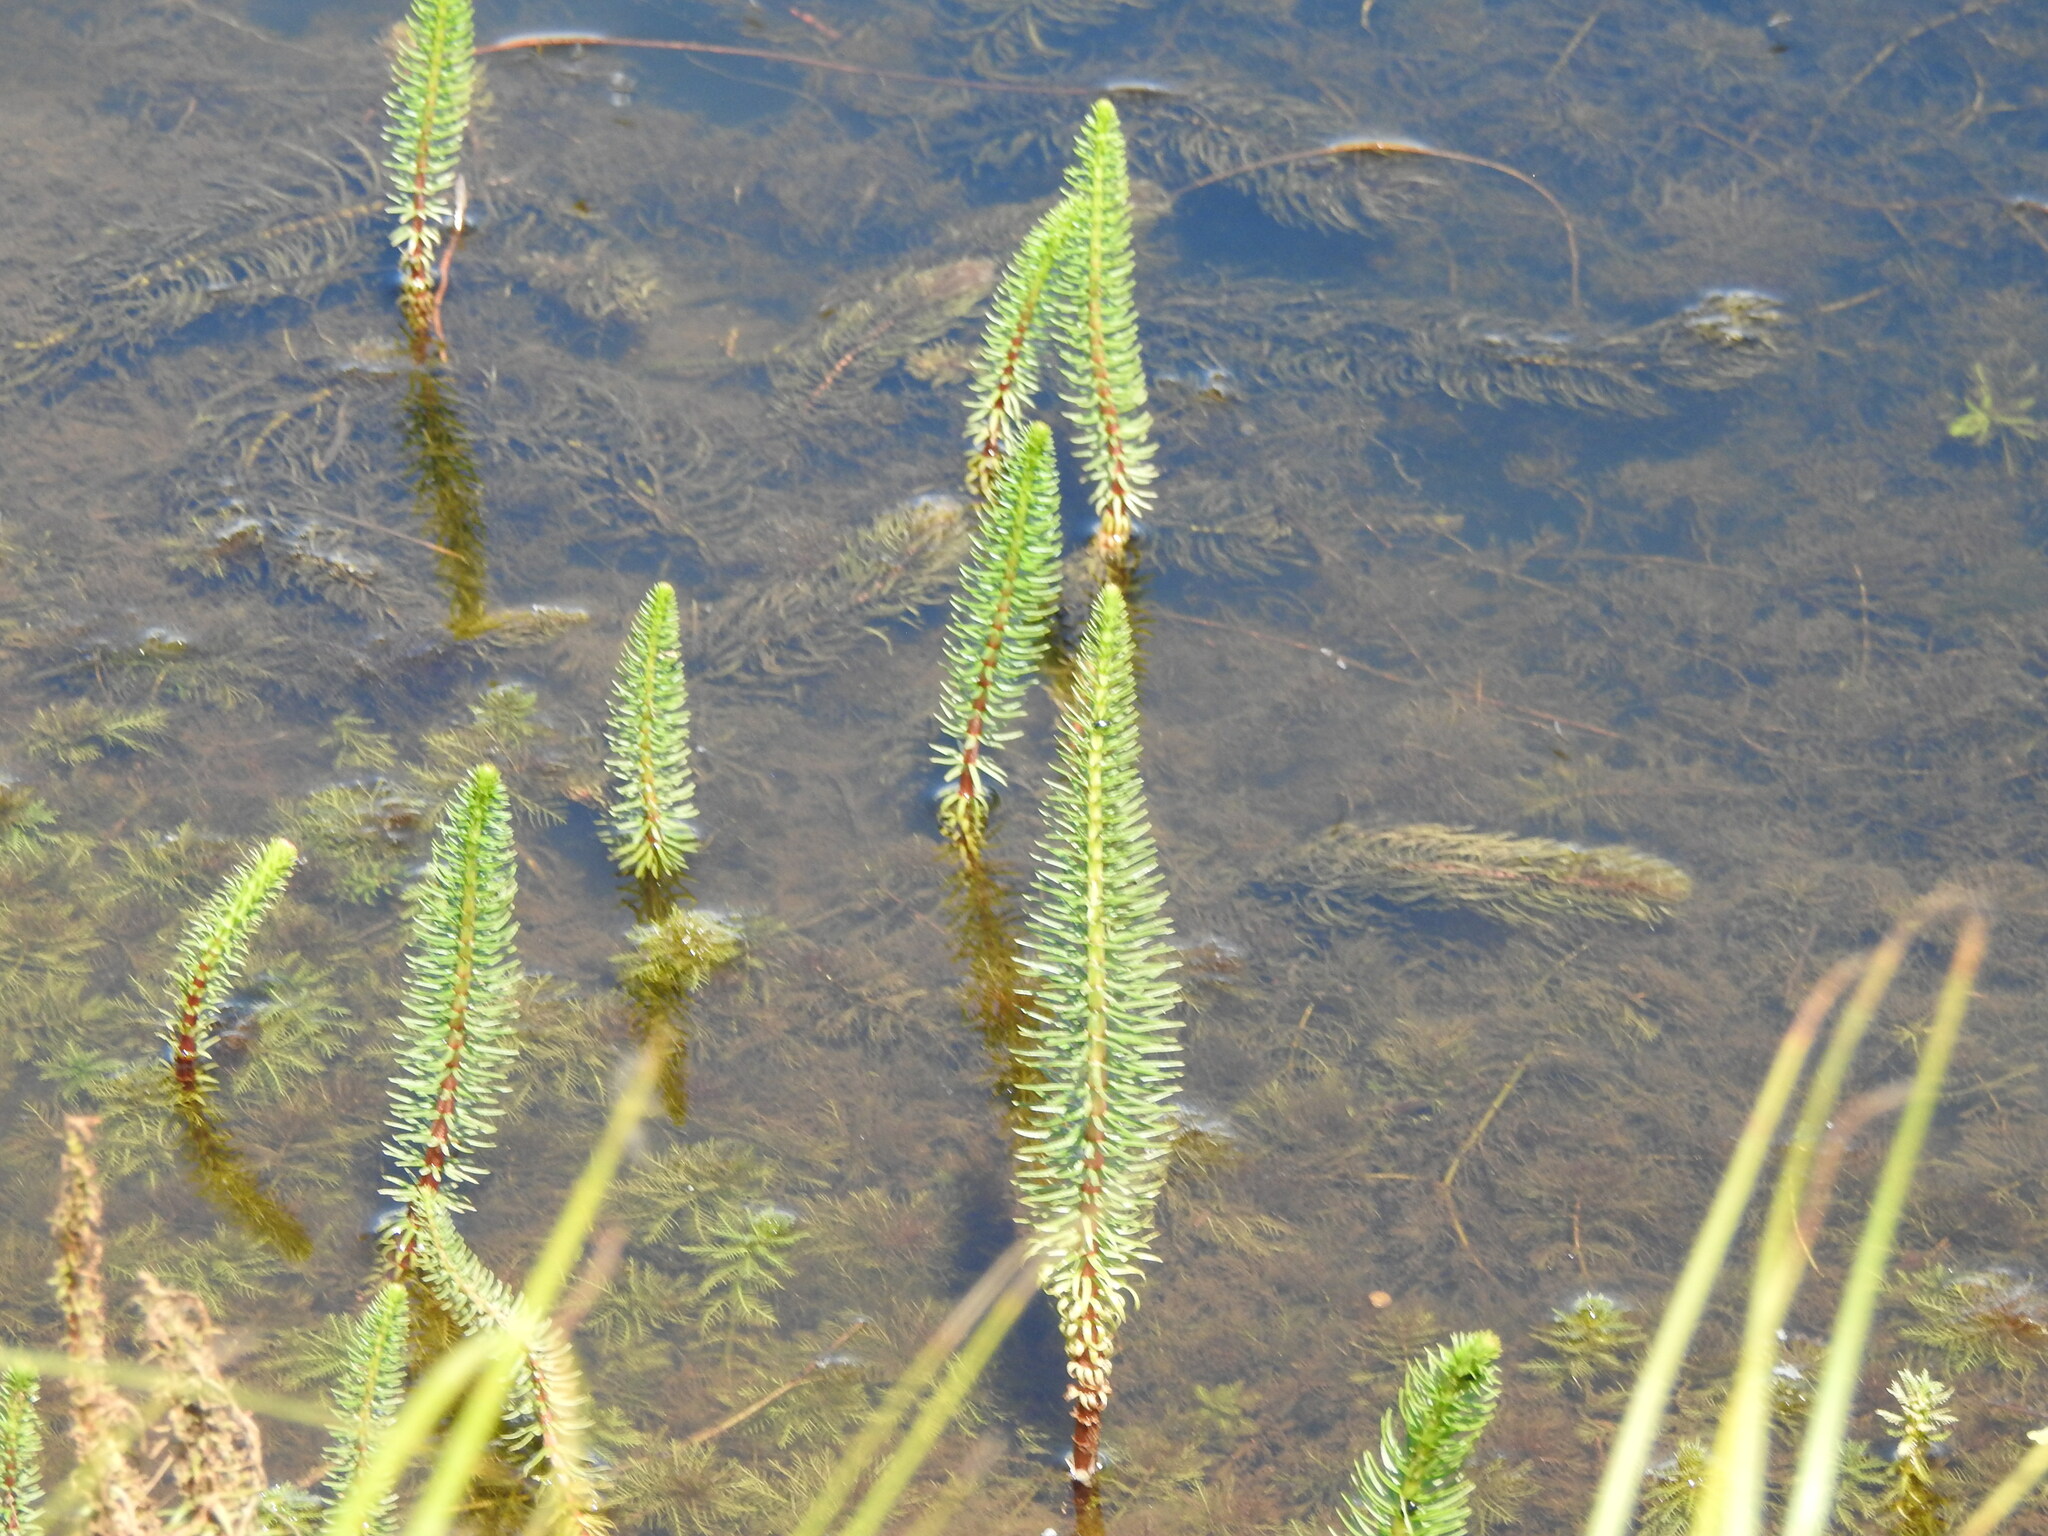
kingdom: Plantae
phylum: Tracheophyta
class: Magnoliopsida
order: Lamiales
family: Plantaginaceae
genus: Hippuris
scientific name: Hippuris vulgaris
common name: Mare's-tail
